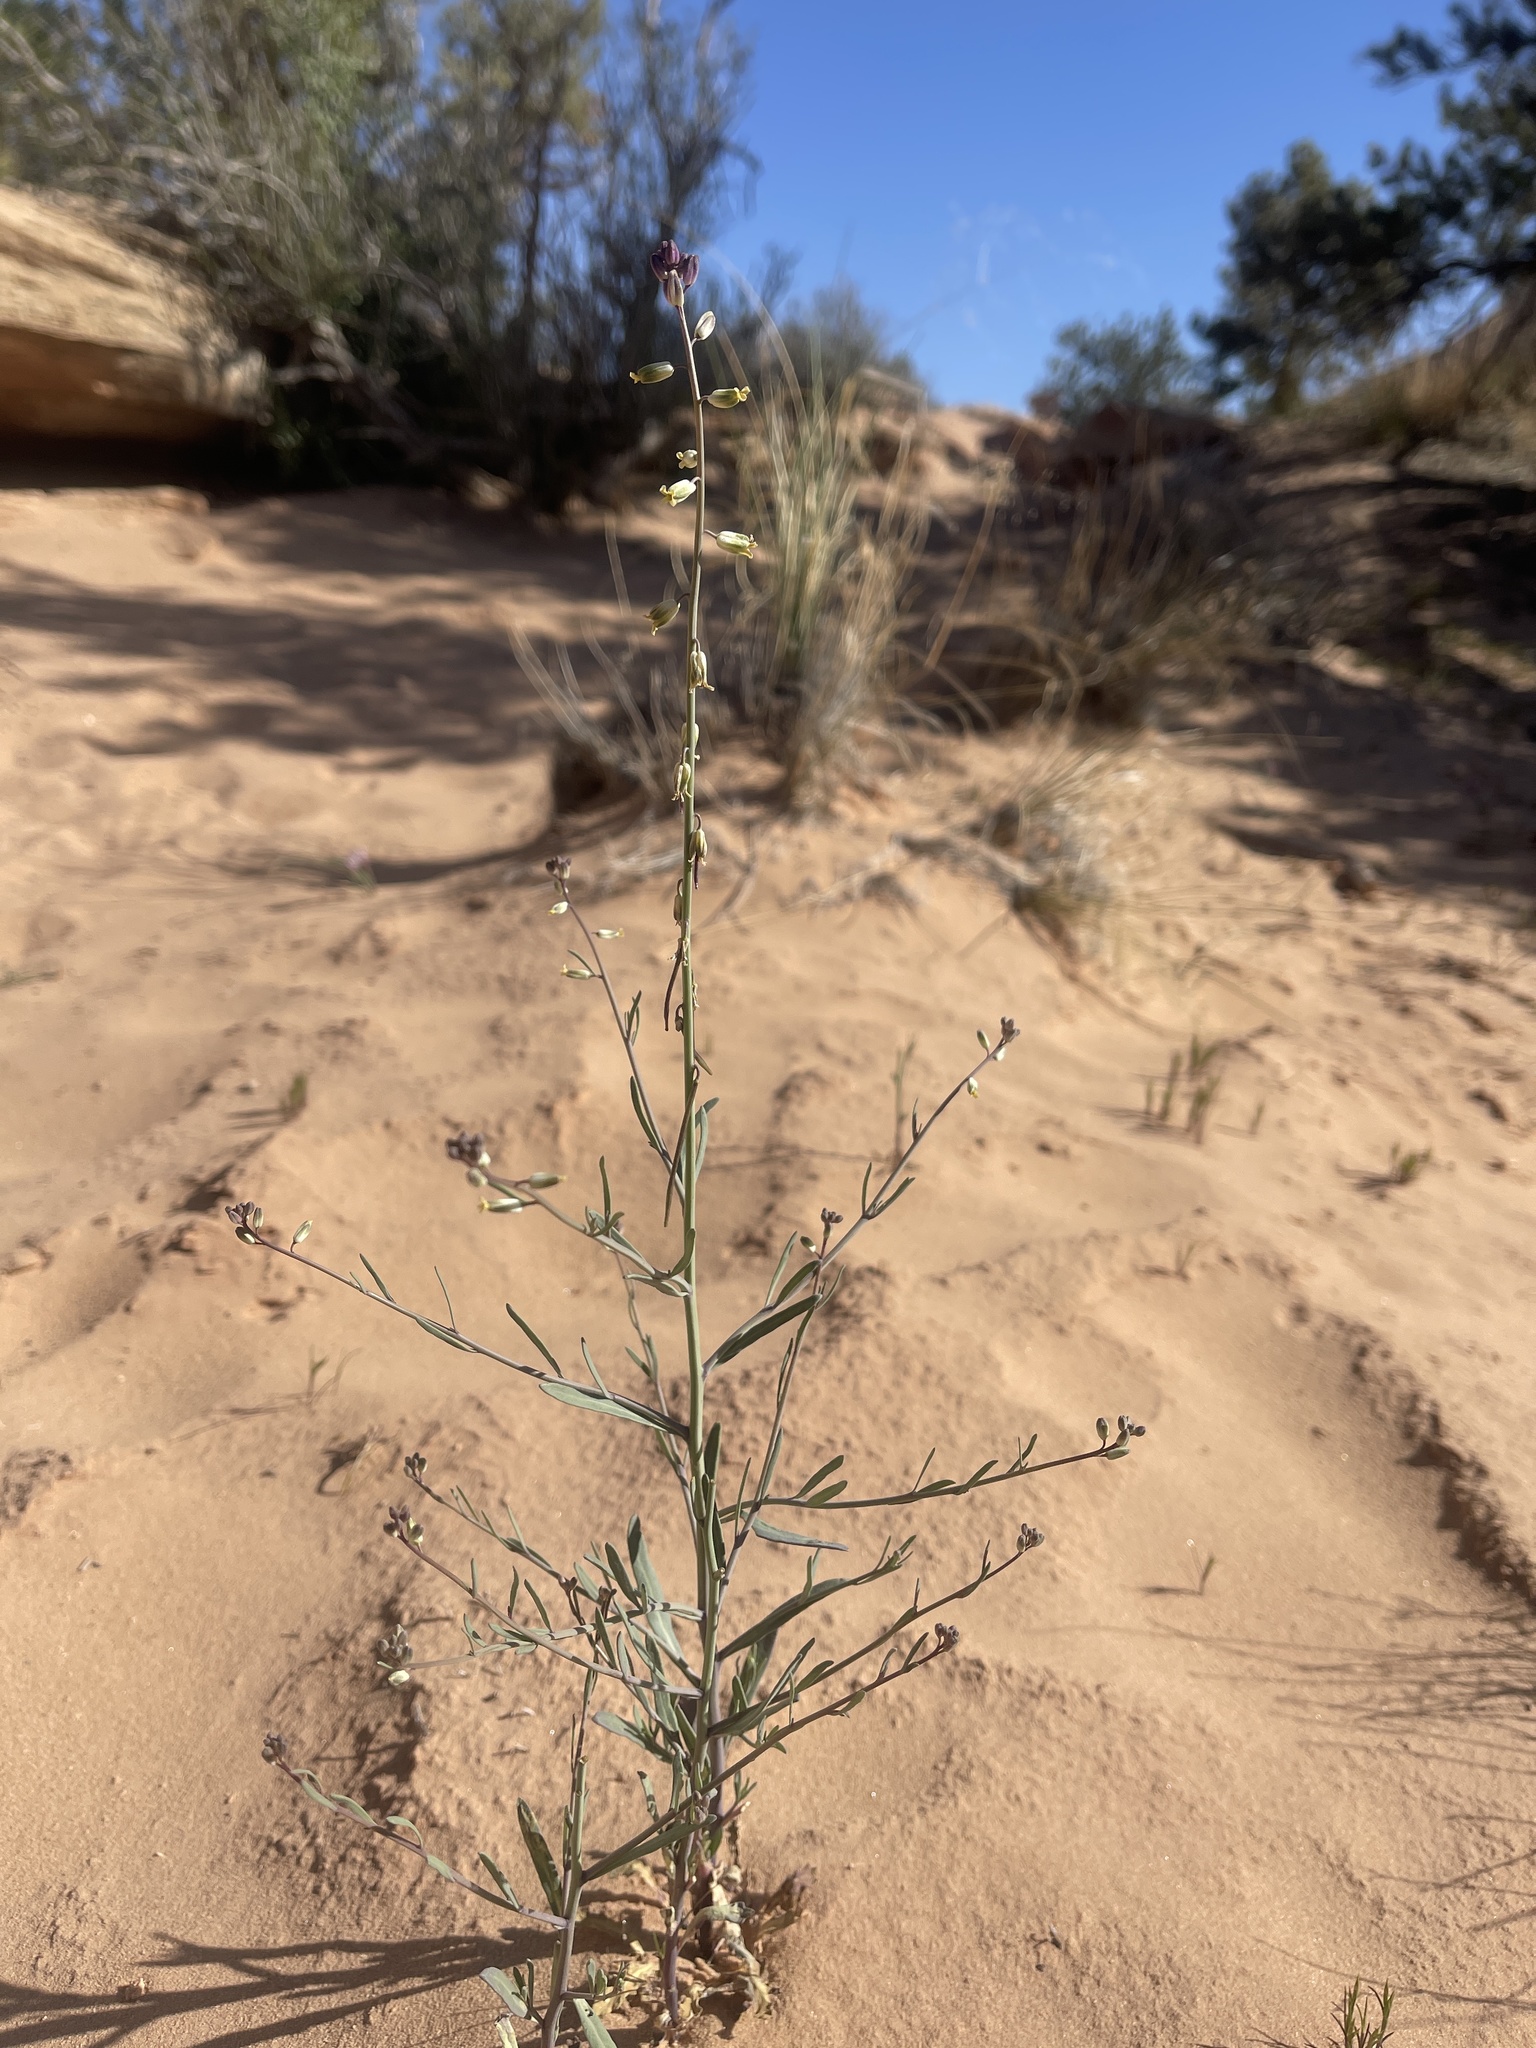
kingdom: Plantae
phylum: Tracheophyta
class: Magnoliopsida
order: Brassicales
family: Brassicaceae
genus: Streptanthus
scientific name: Streptanthus longirostris
